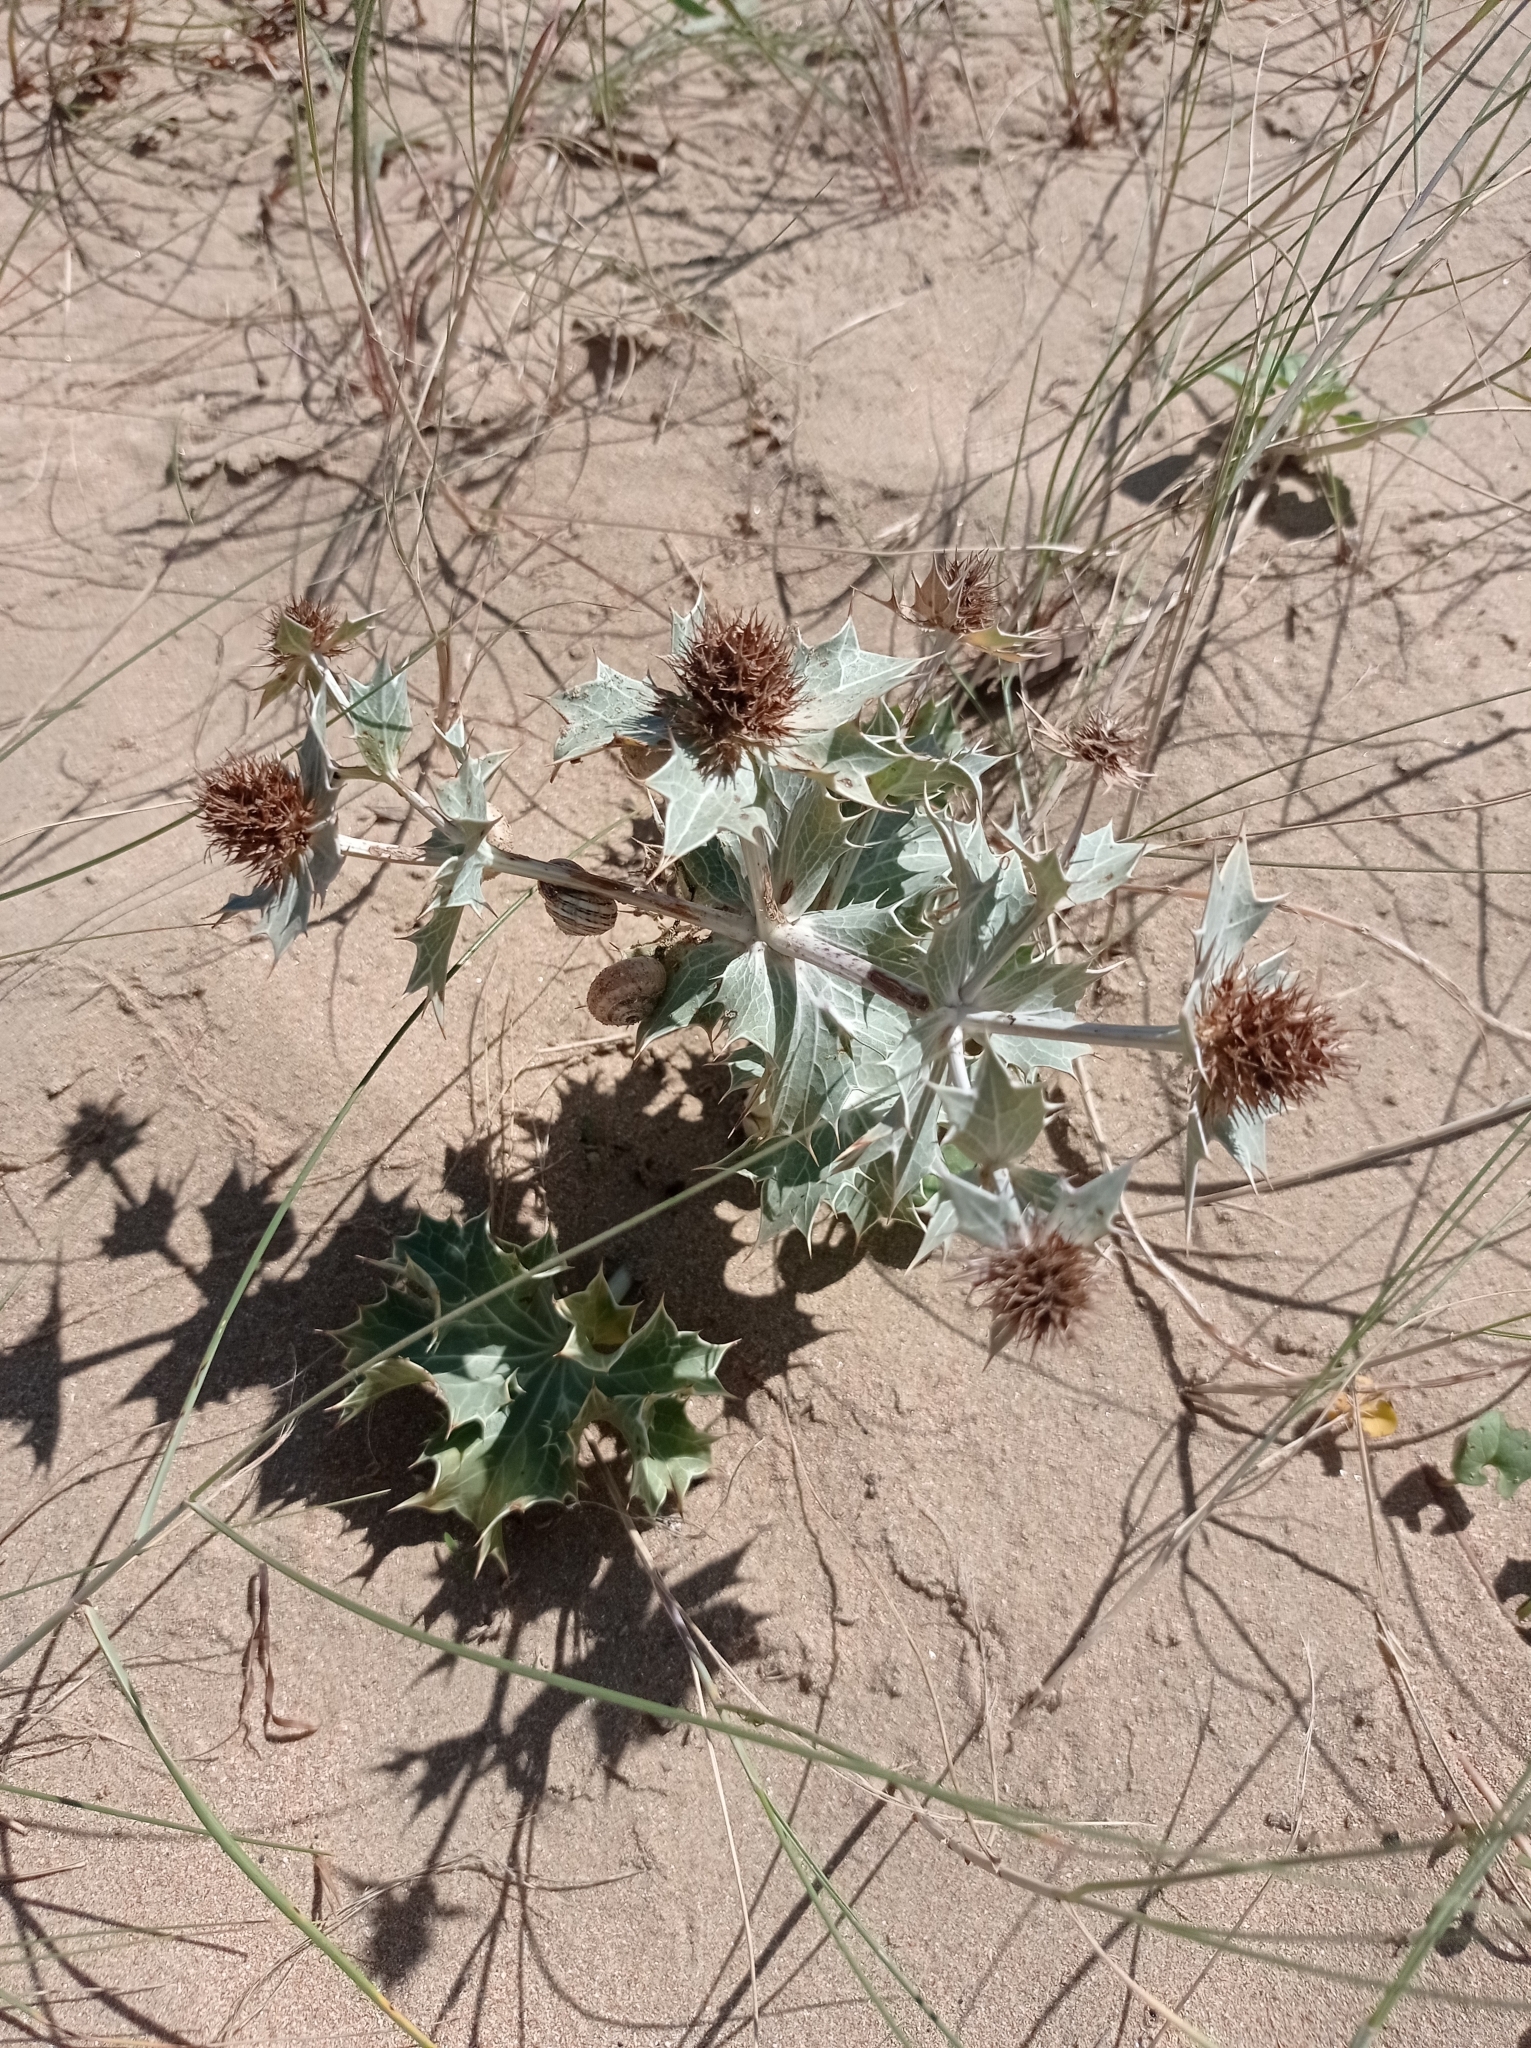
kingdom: Plantae
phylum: Tracheophyta
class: Magnoliopsida
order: Apiales
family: Apiaceae
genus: Eryngium
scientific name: Eryngium maritimum
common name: Sea-holly
